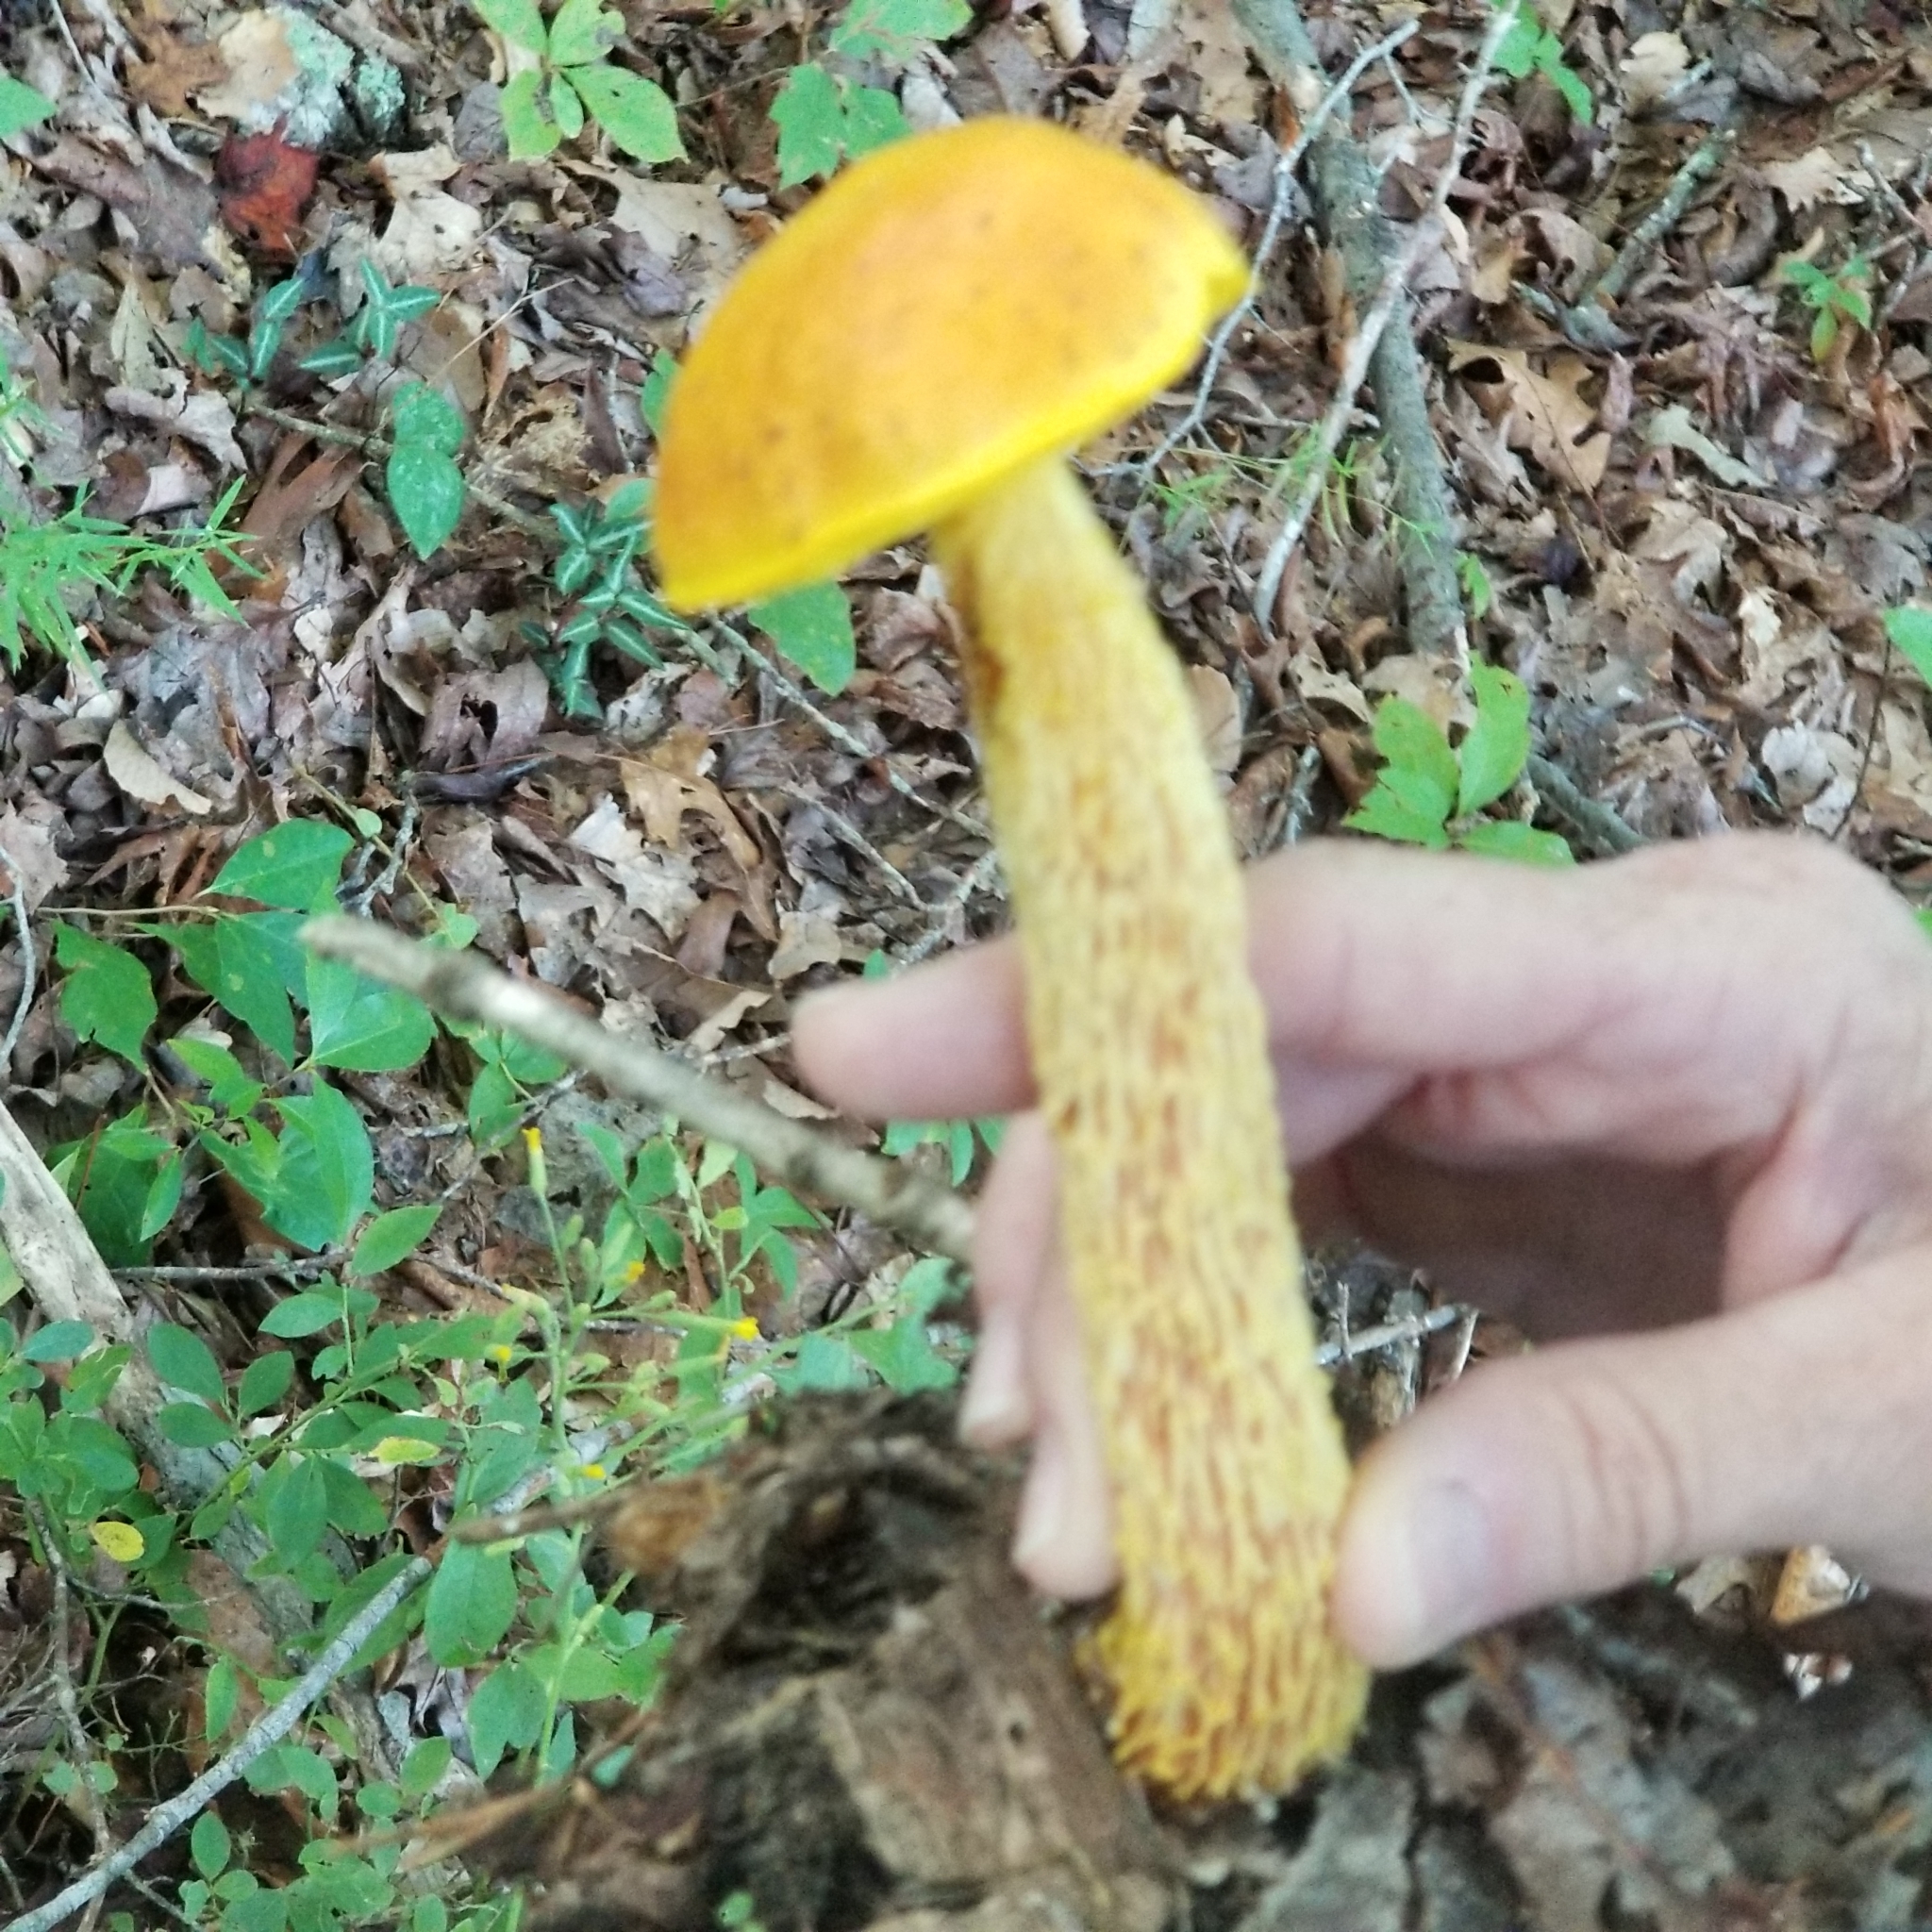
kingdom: Fungi
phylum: Basidiomycota
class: Agaricomycetes
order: Boletales
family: Boletaceae
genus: Aureoboletus
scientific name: Aureoboletus betula
